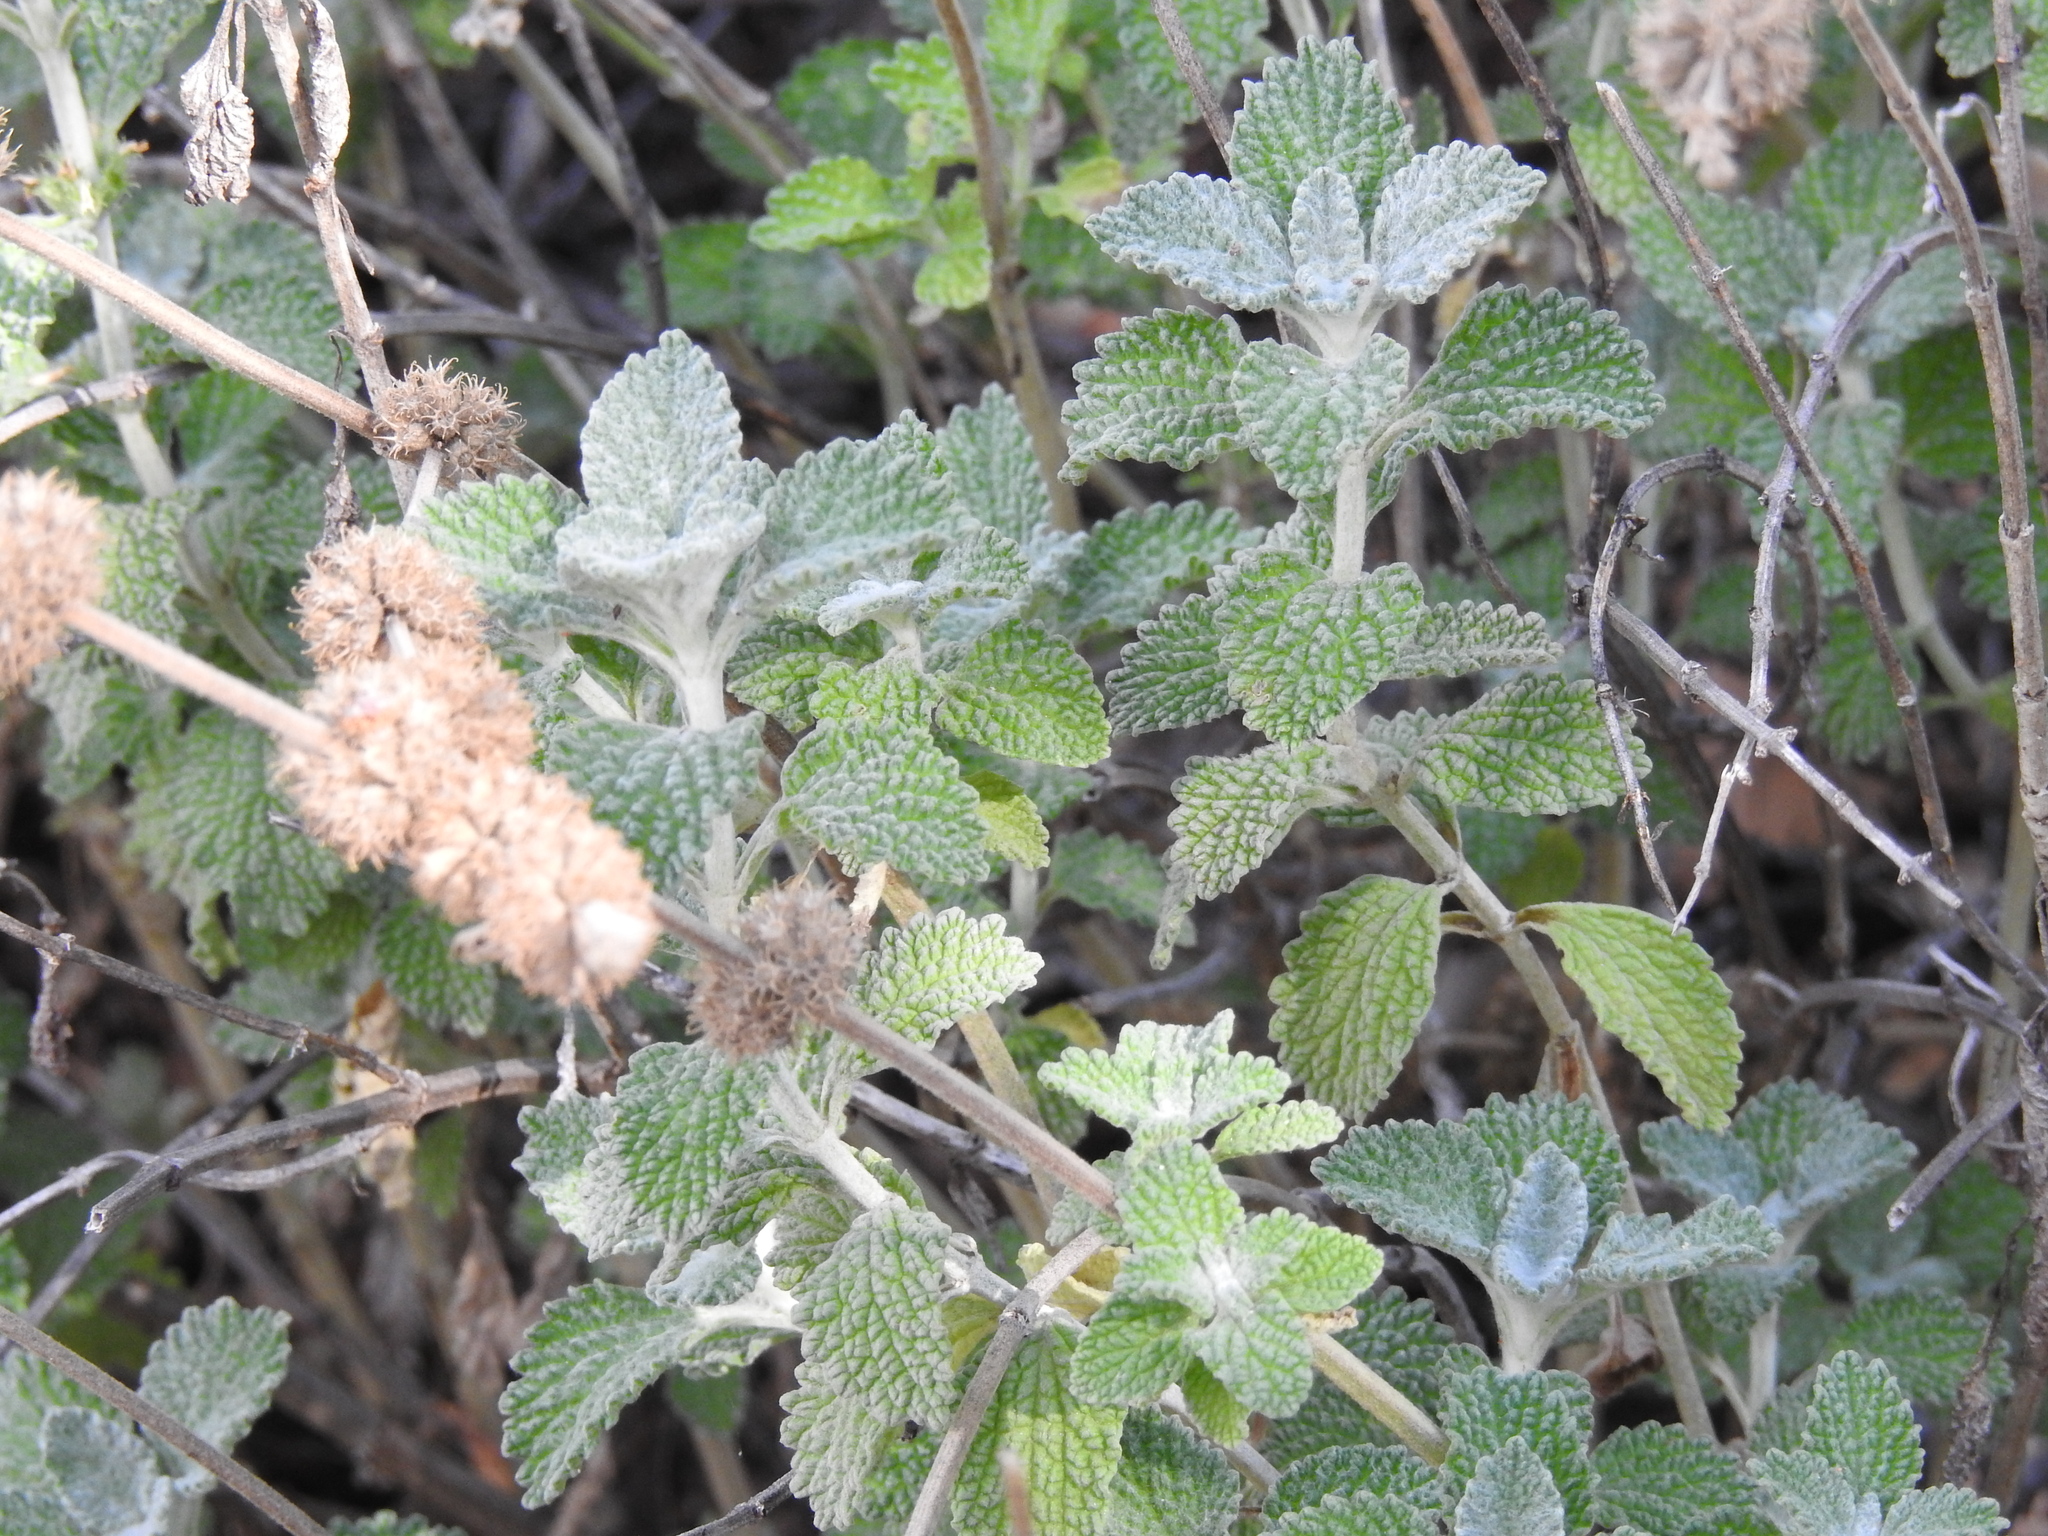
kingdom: Plantae
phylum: Tracheophyta
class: Magnoliopsida
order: Lamiales
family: Lamiaceae
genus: Marrubium
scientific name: Marrubium vulgare
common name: Horehound
